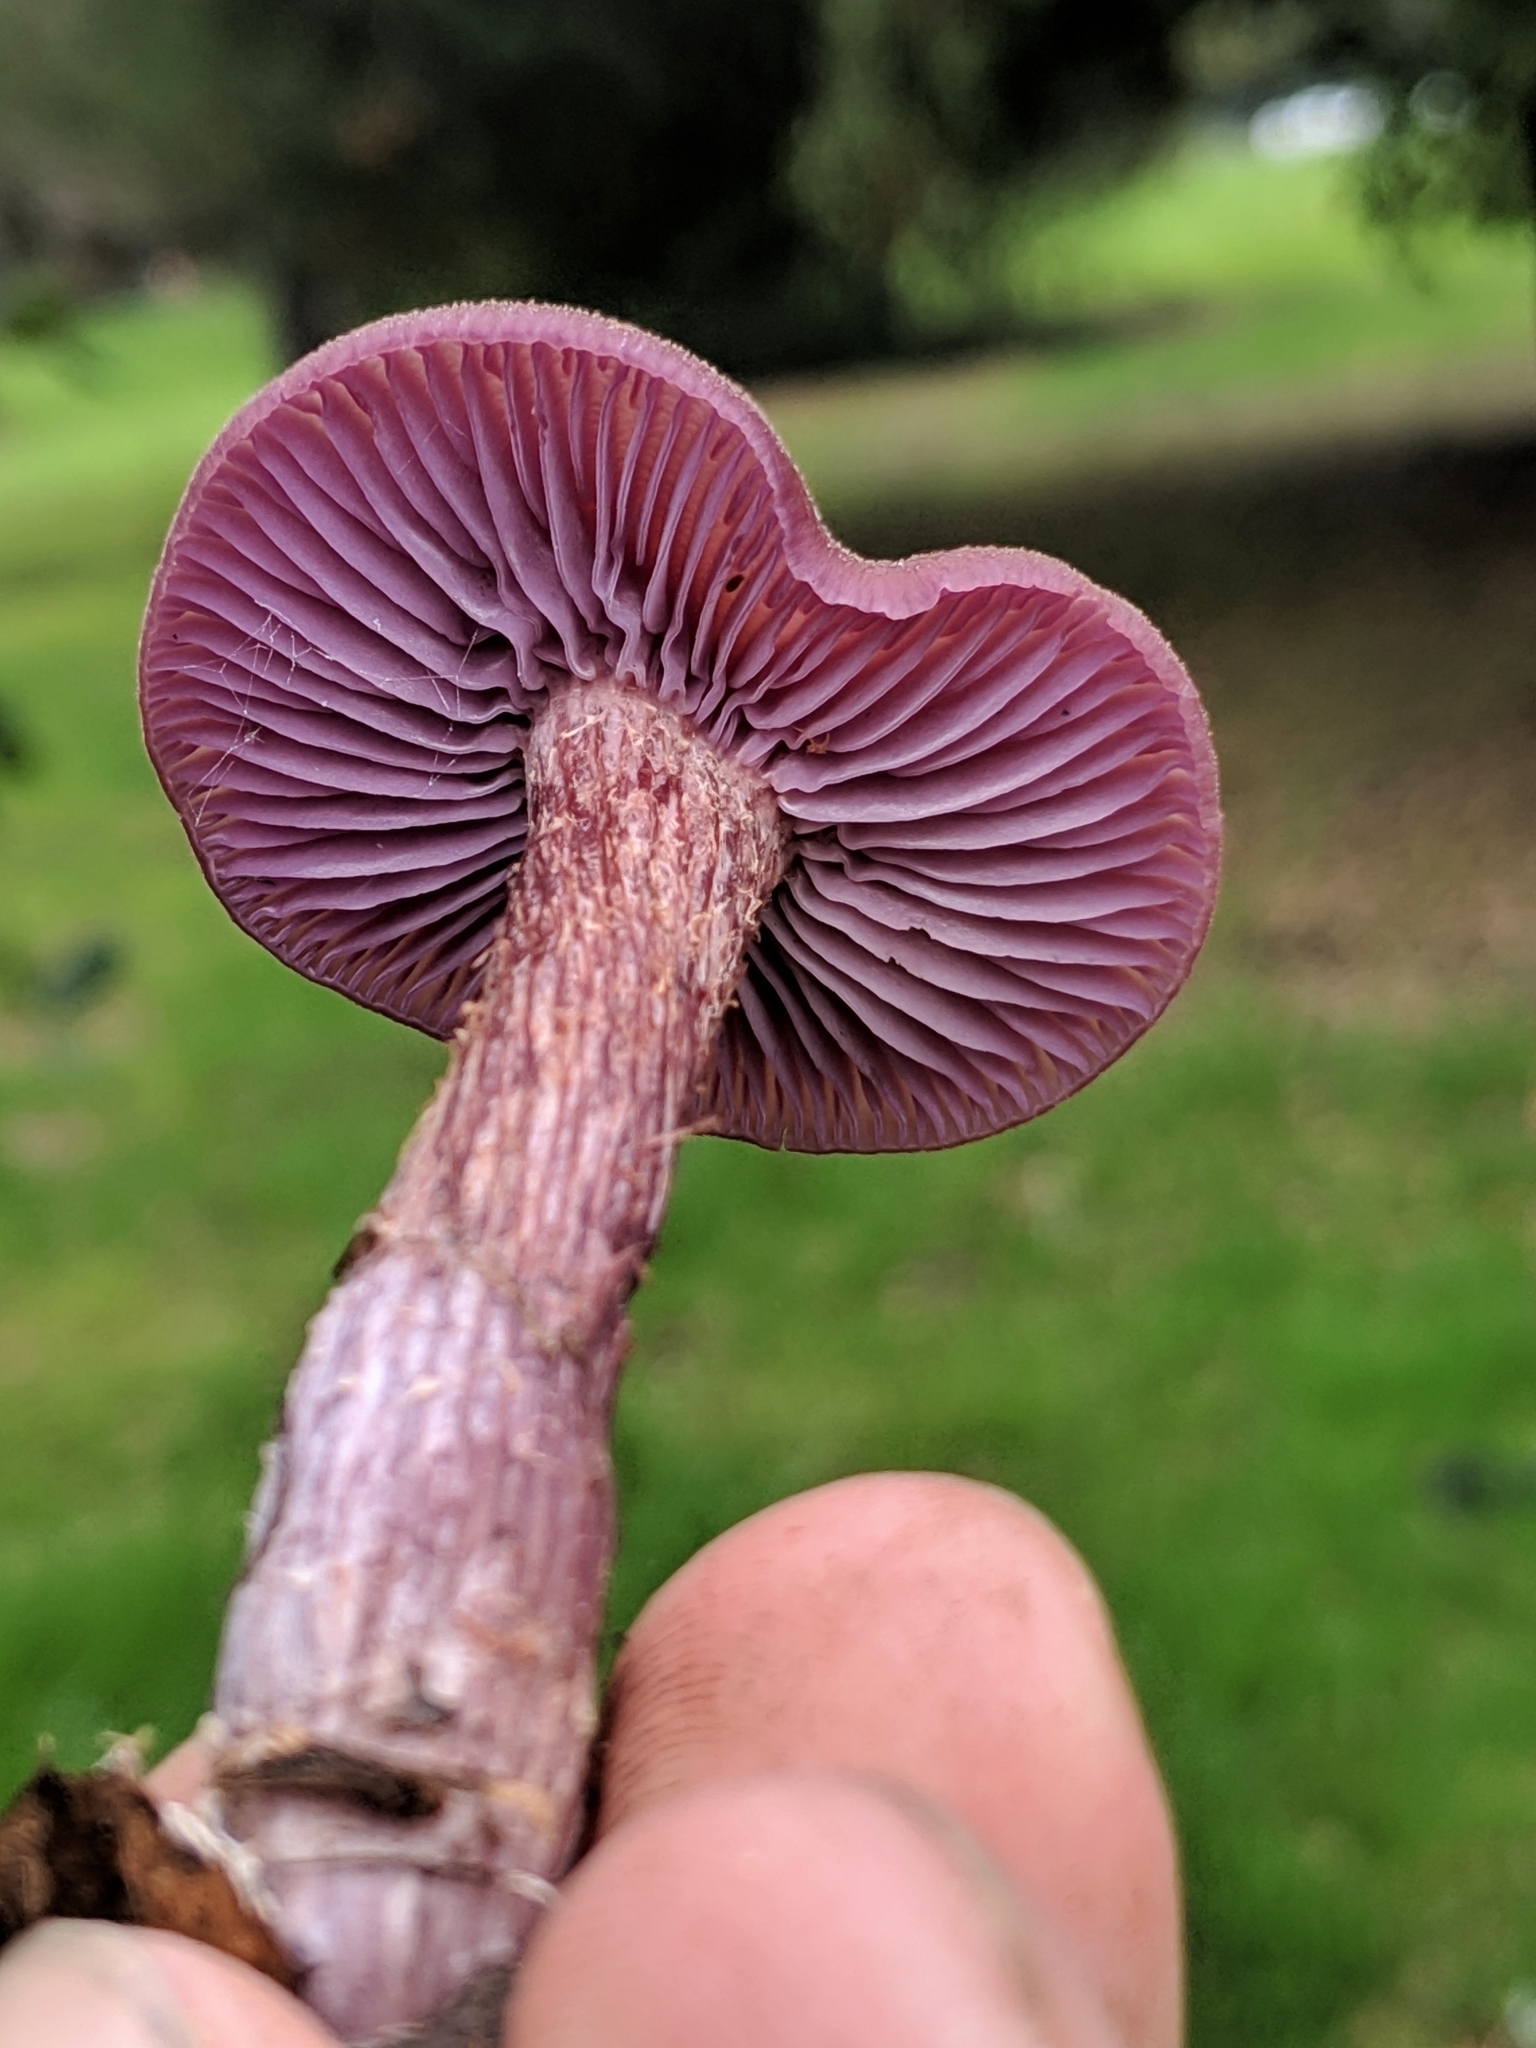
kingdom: Fungi
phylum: Basidiomycota
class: Agaricomycetes
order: Agaricales
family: Hydnangiaceae
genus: Laccaria
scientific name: Laccaria amethysteo-occidentalis
